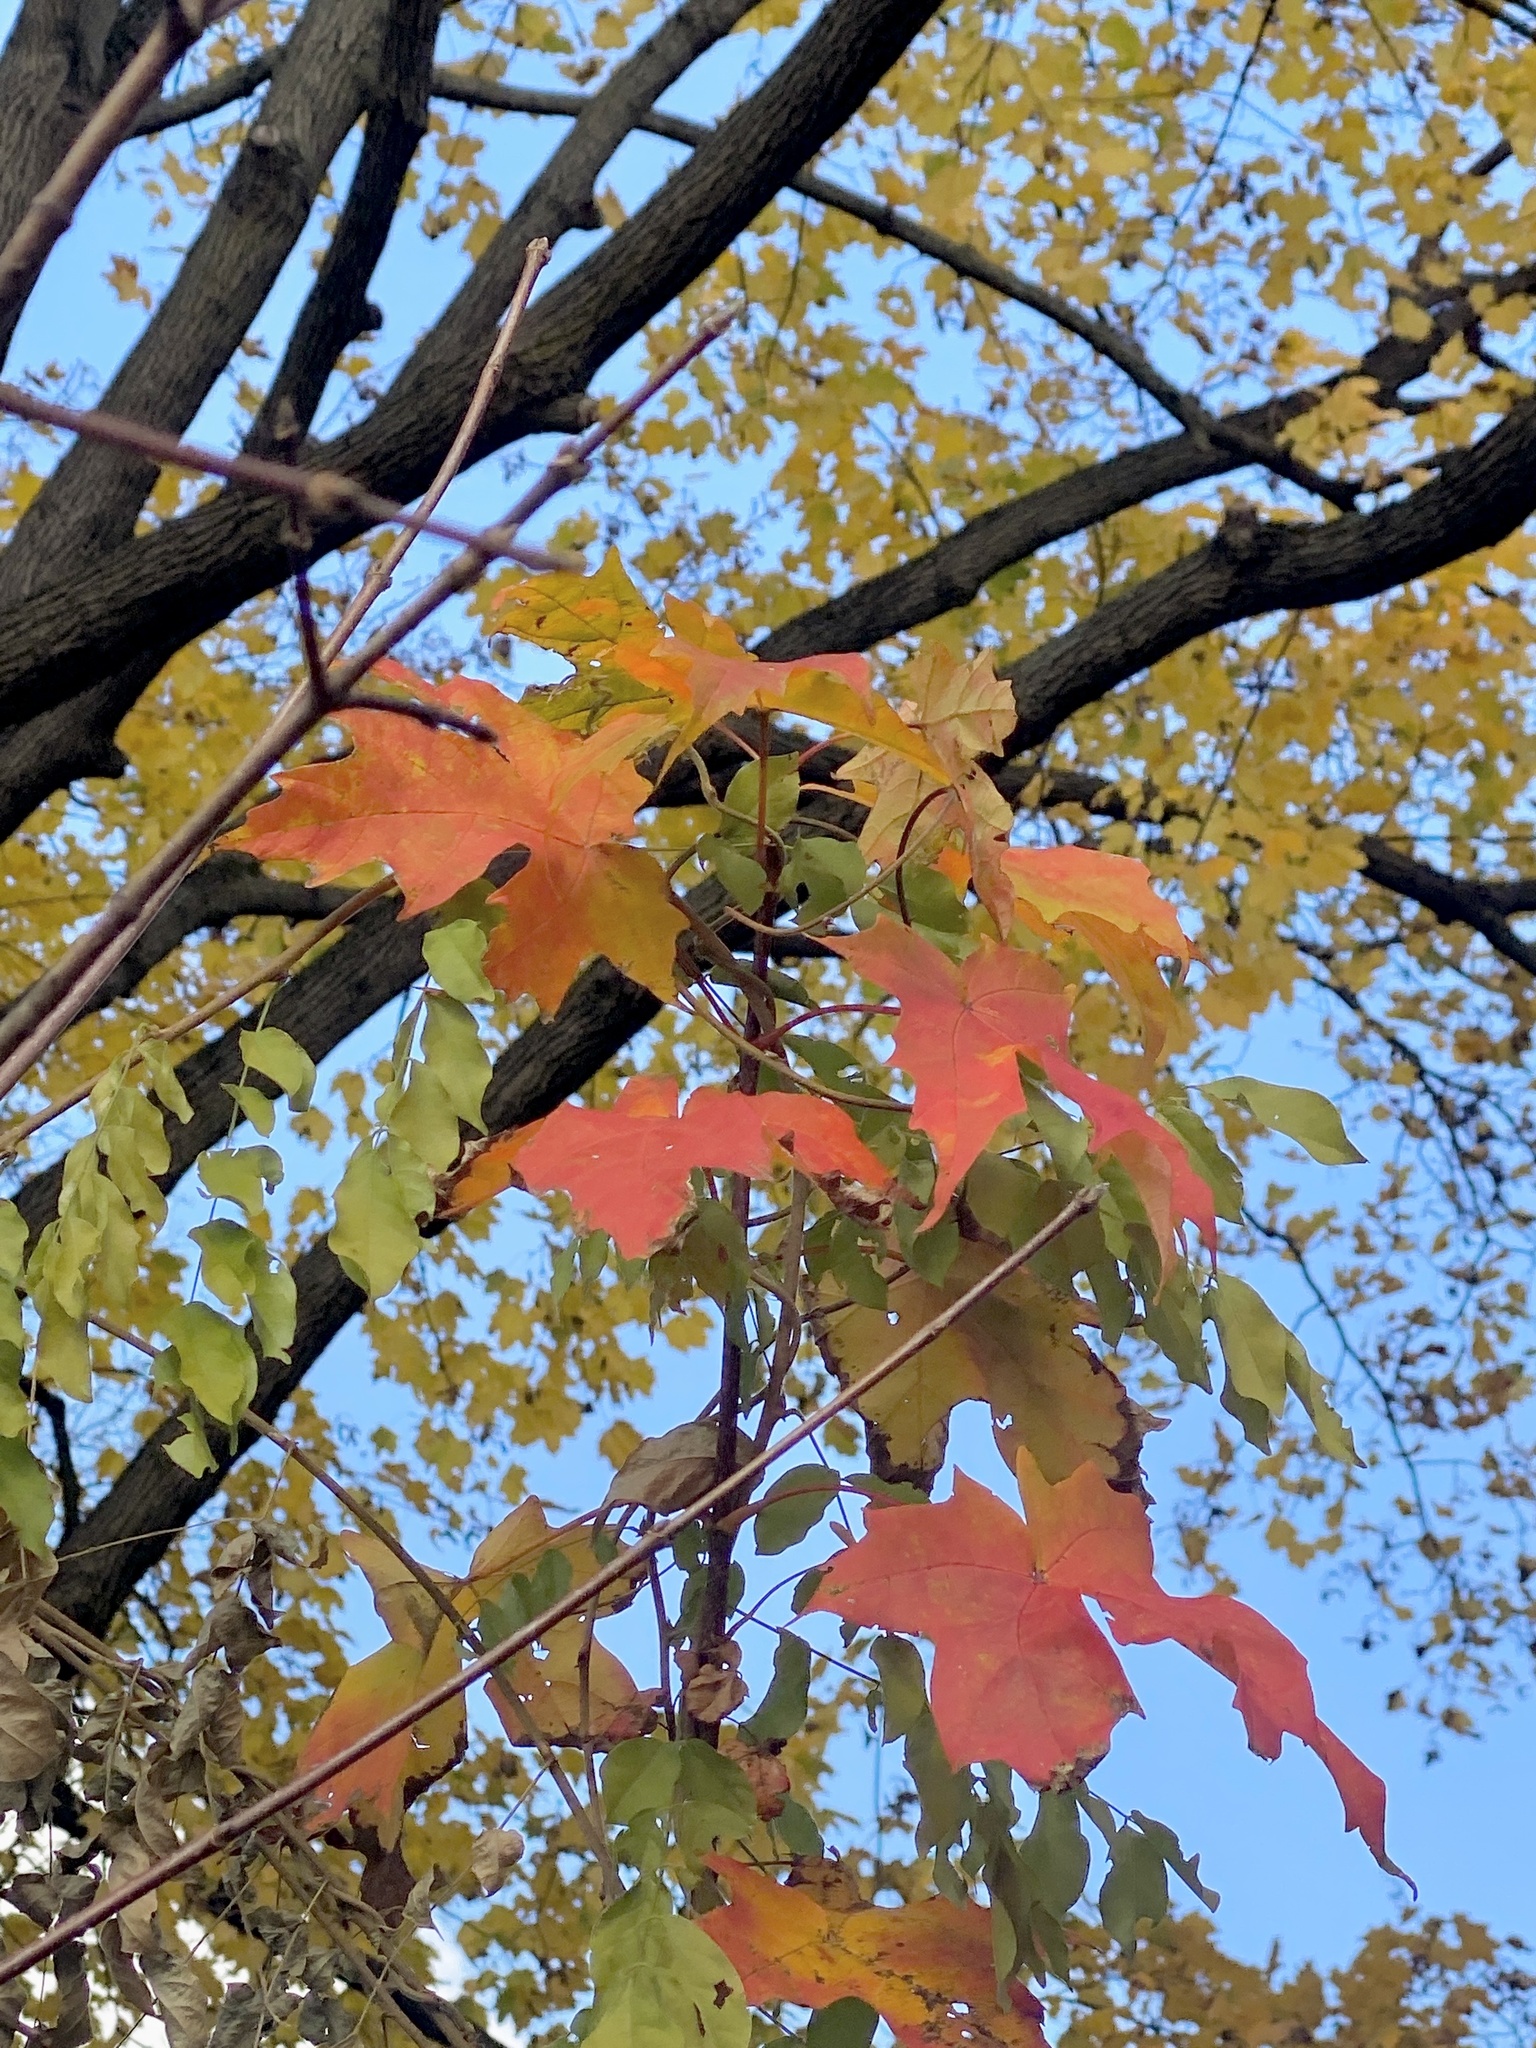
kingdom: Plantae
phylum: Tracheophyta
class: Magnoliopsida
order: Sapindales
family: Sapindaceae
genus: Acer
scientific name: Acer saccharum
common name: Sugar maple
